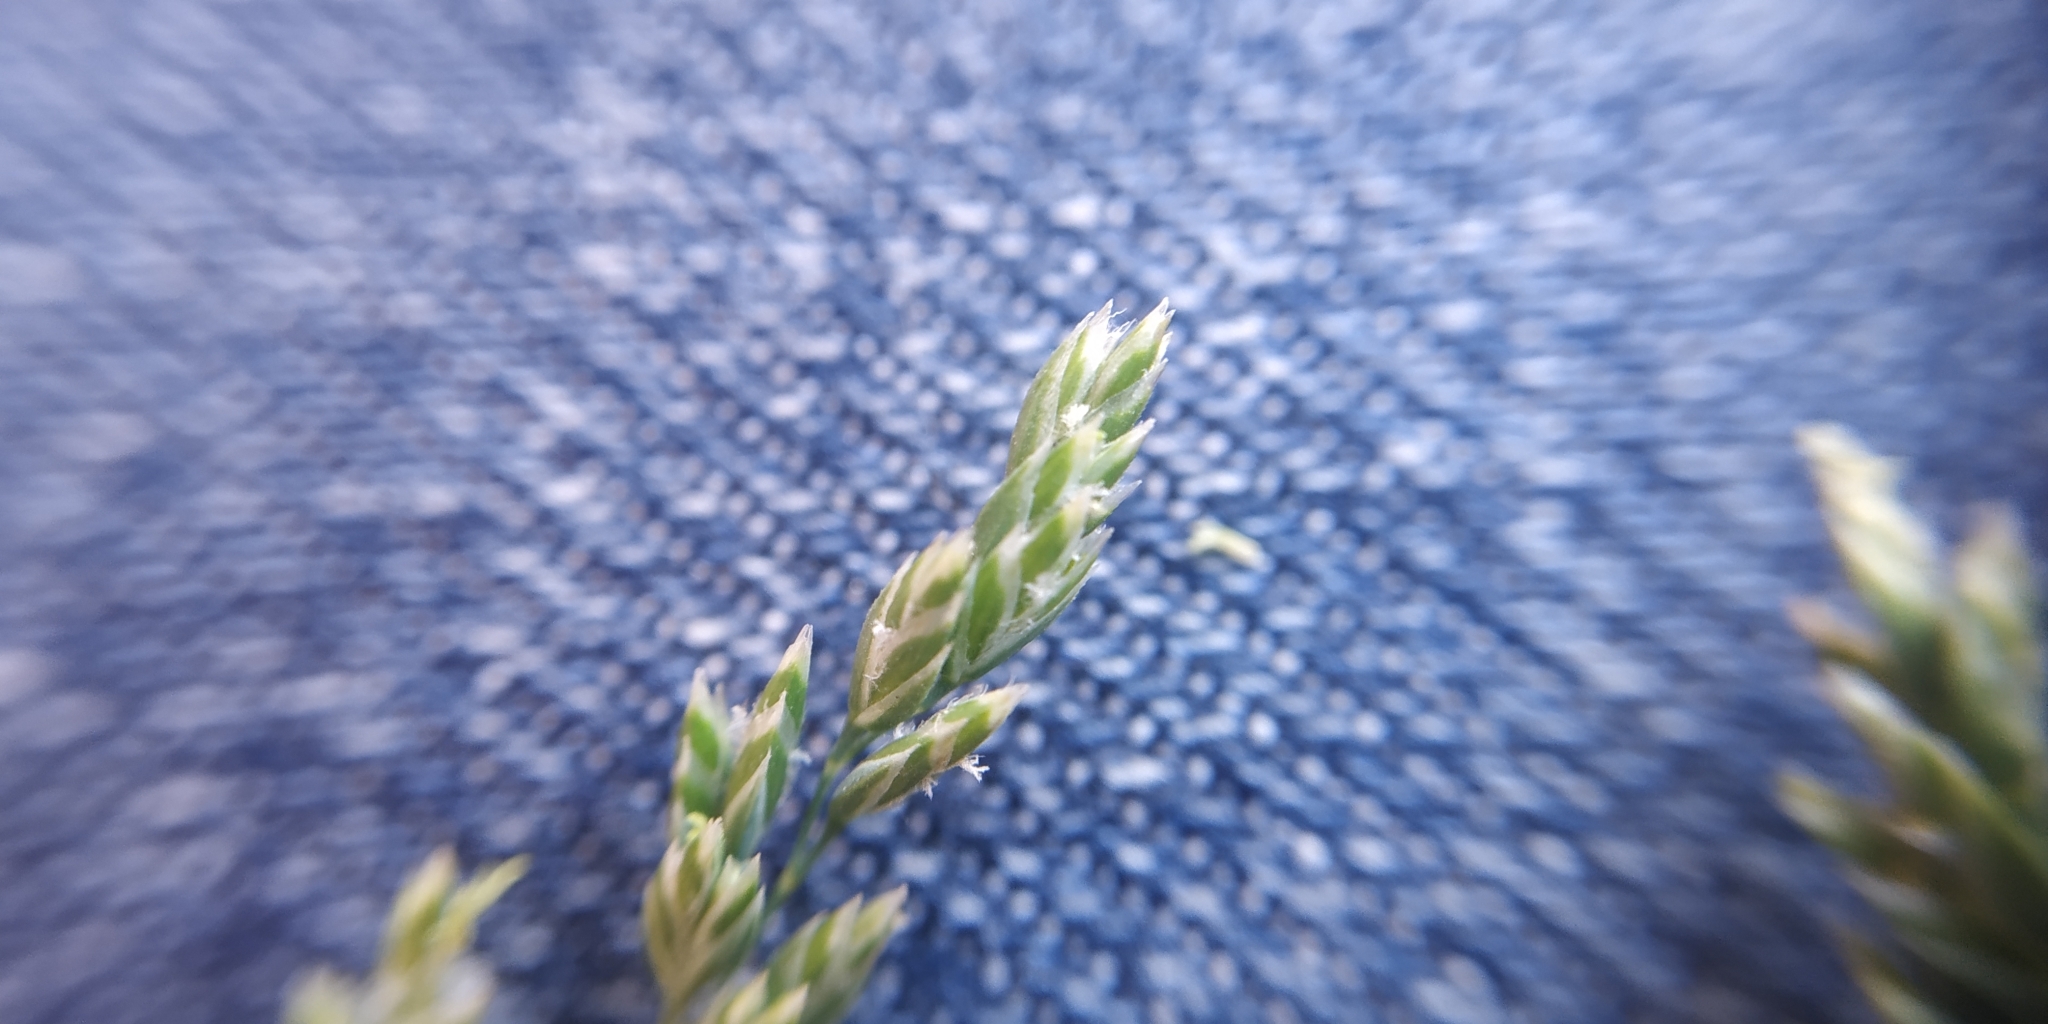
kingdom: Plantae
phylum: Tracheophyta
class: Liliopsida
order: Poales
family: Poaceae
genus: Poa
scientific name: Poa trivialis
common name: Rough bluegrass
